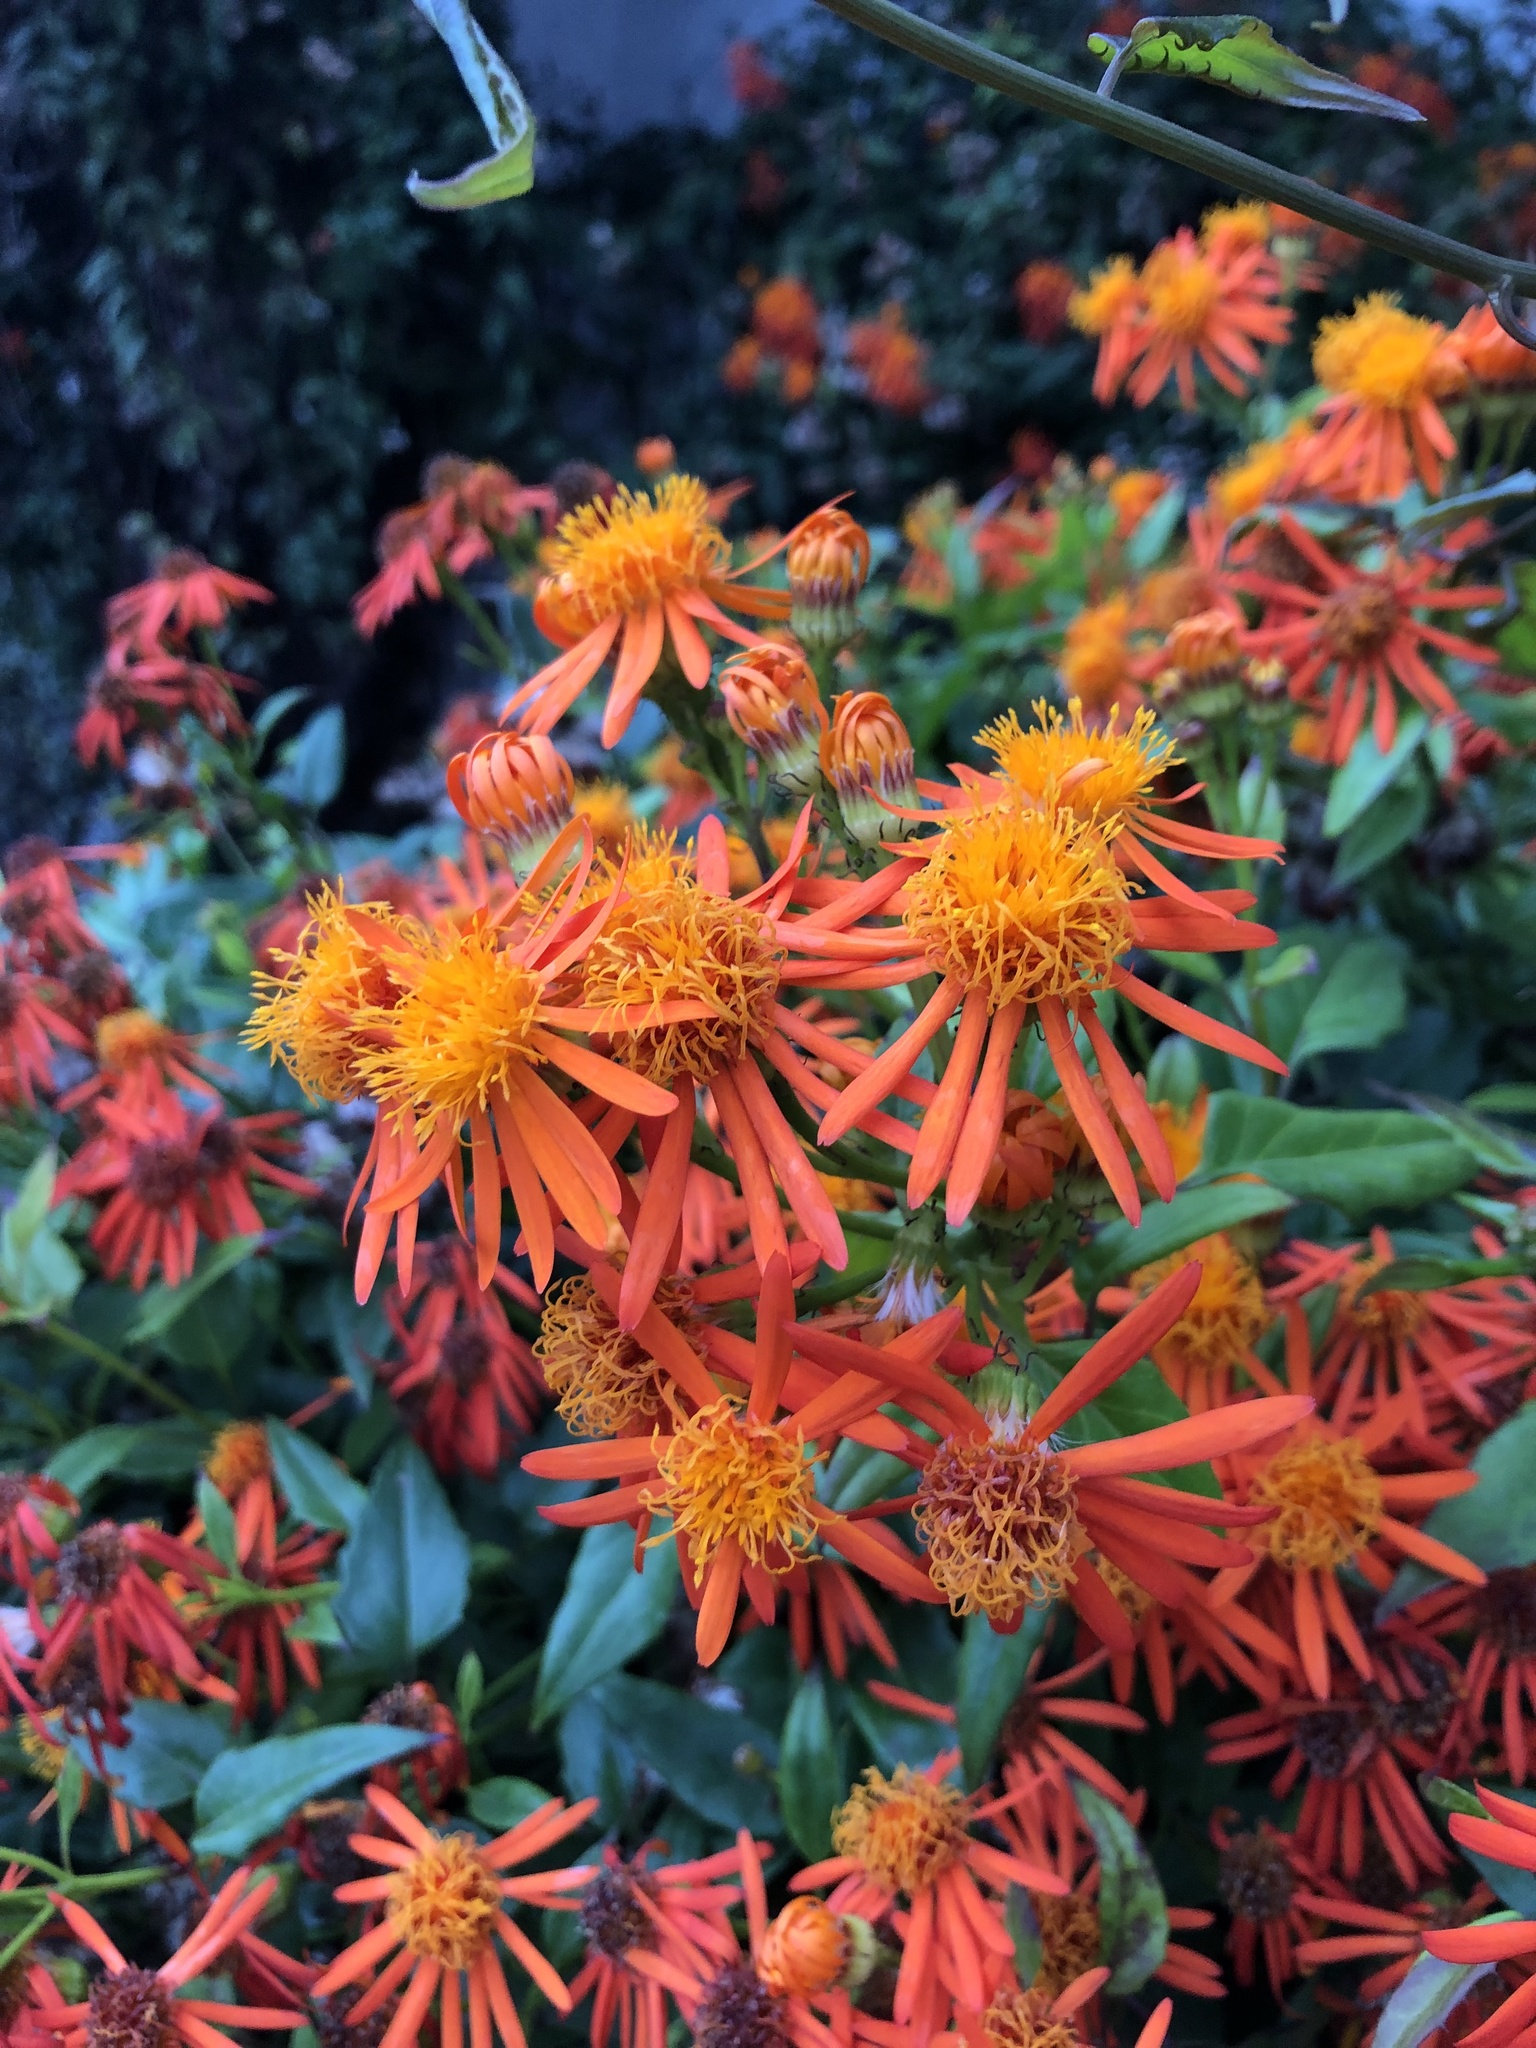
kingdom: Plantae
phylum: Tracheophyta
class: Magnoliopsida
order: Asterales
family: Asteraceae
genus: Pseudogynoxys
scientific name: Pseudogynoxys chenopodioides
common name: Mexican flamevine
